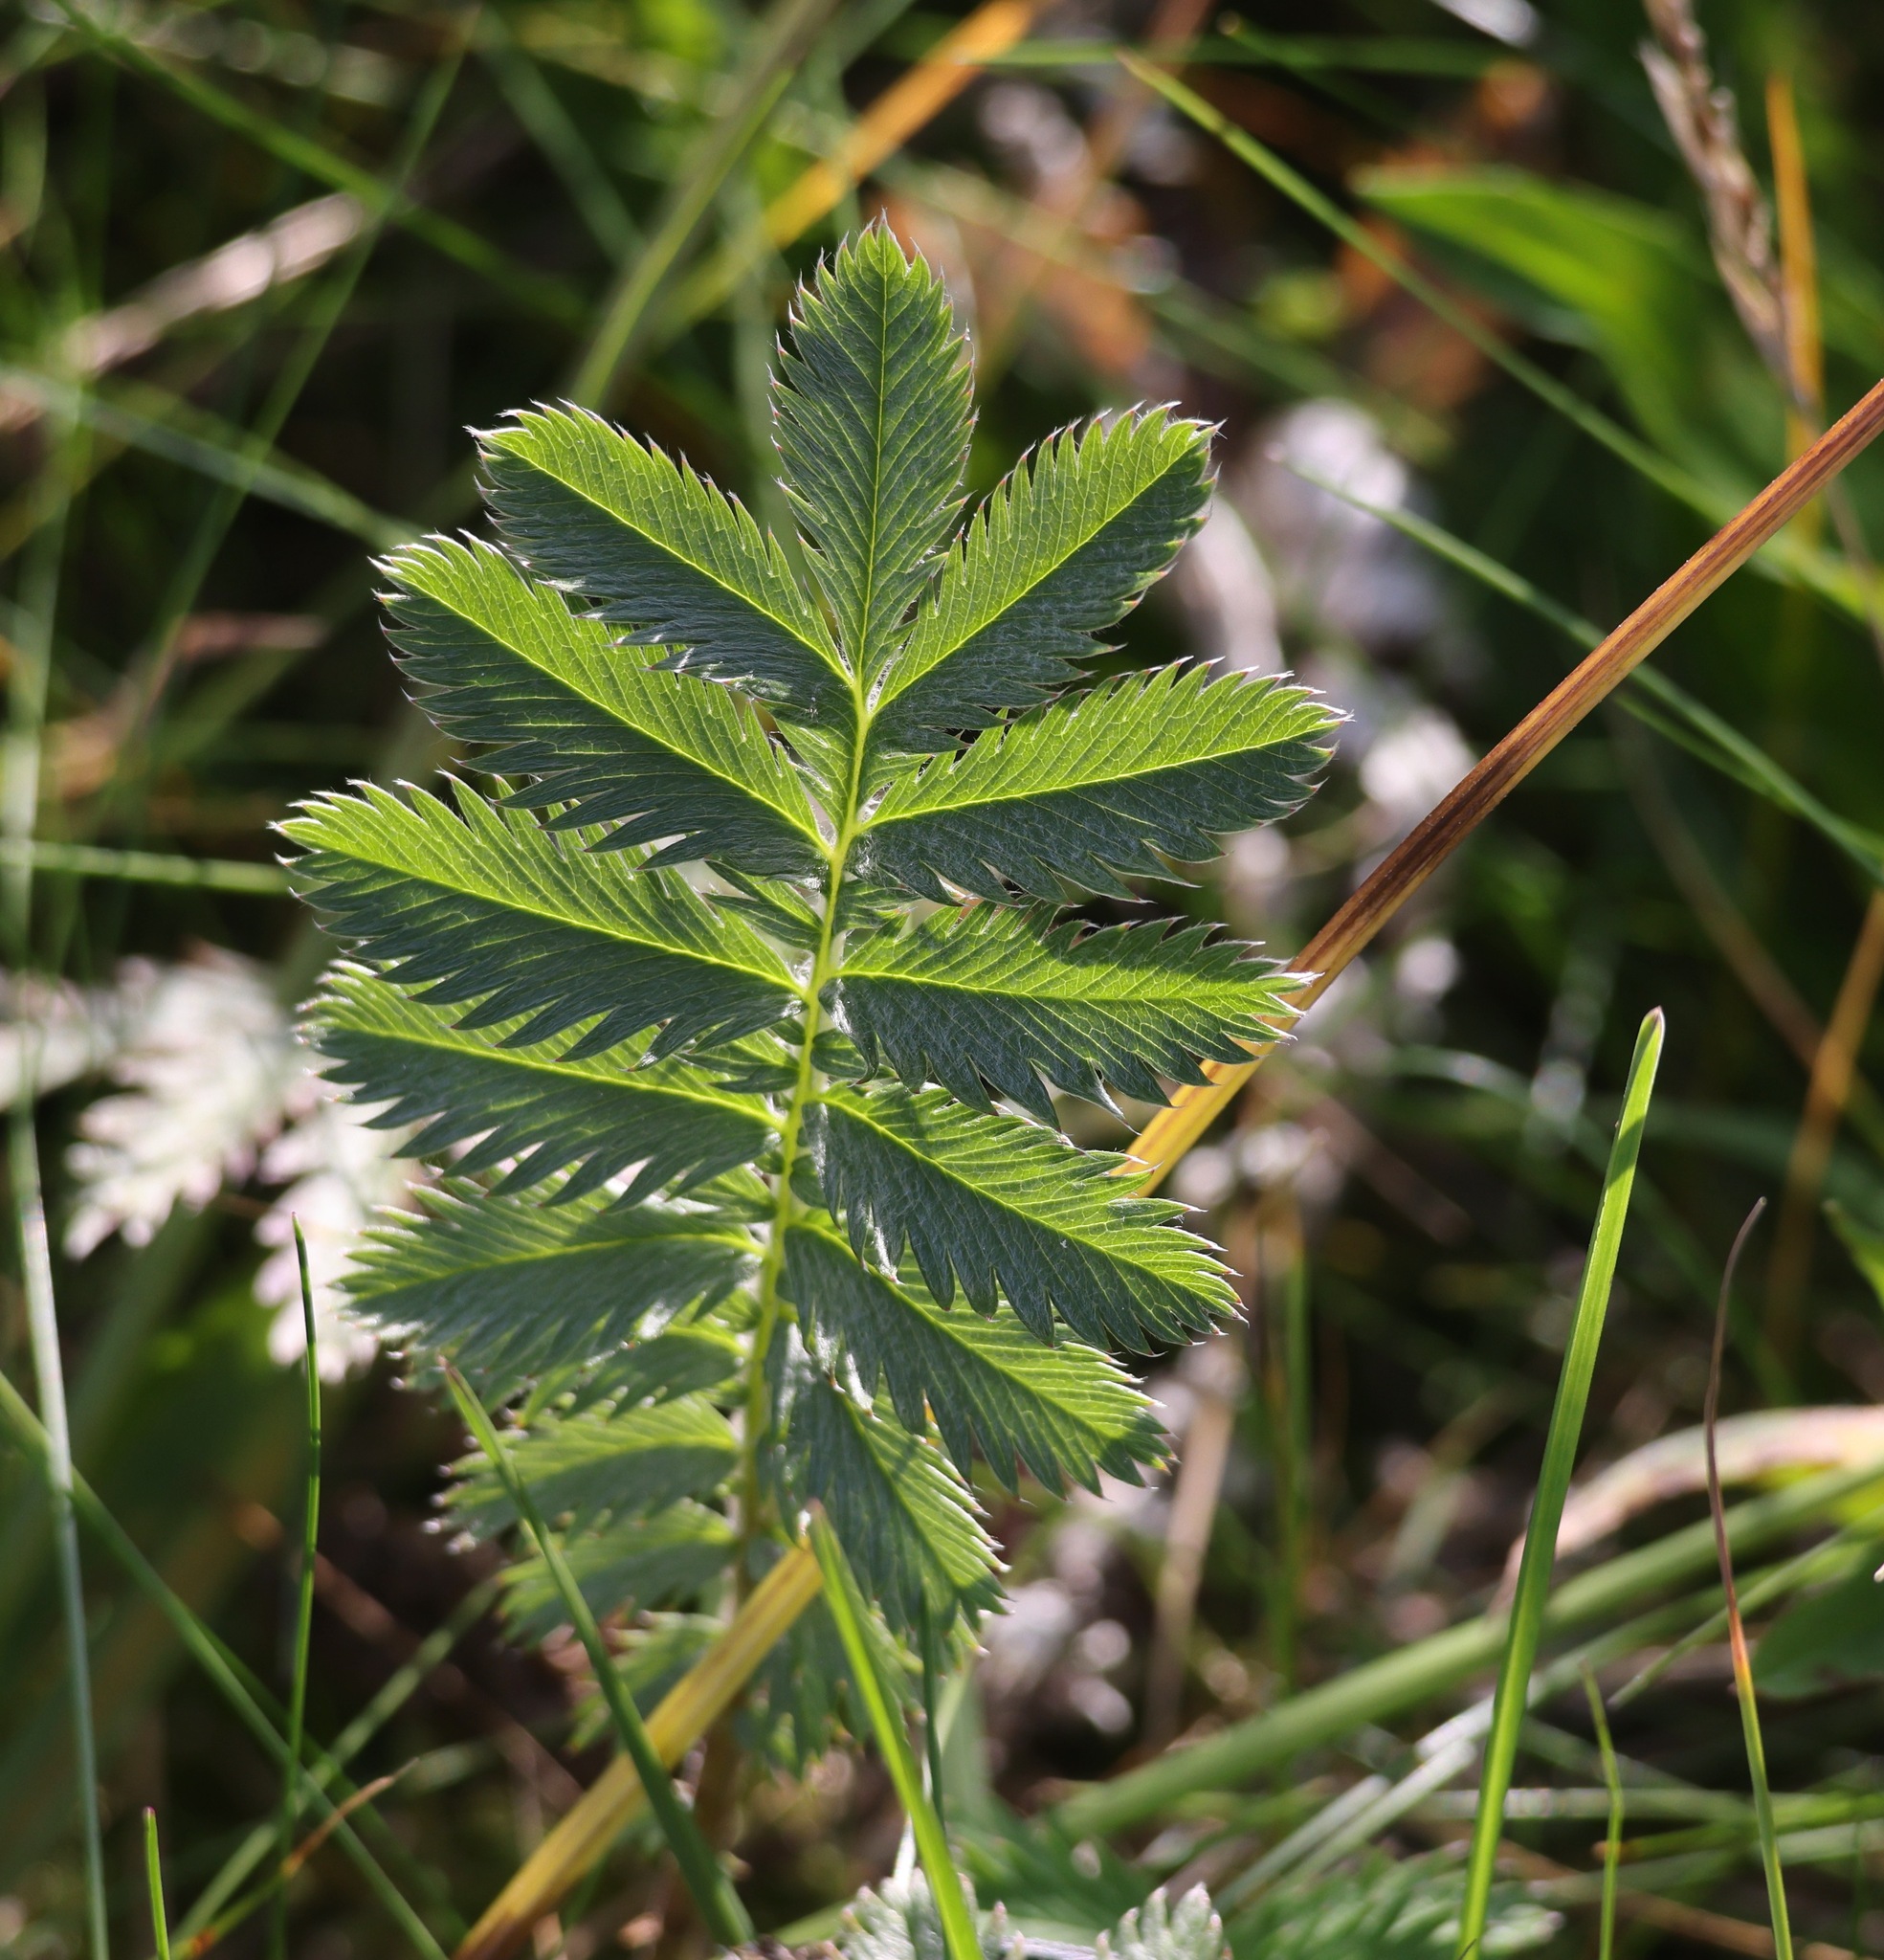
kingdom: Plantae
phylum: Tracheophyta
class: Magnoliopsida
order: Rosales
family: Rosaceae
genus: Argentina
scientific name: Argentina anserina
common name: Common silverweed
